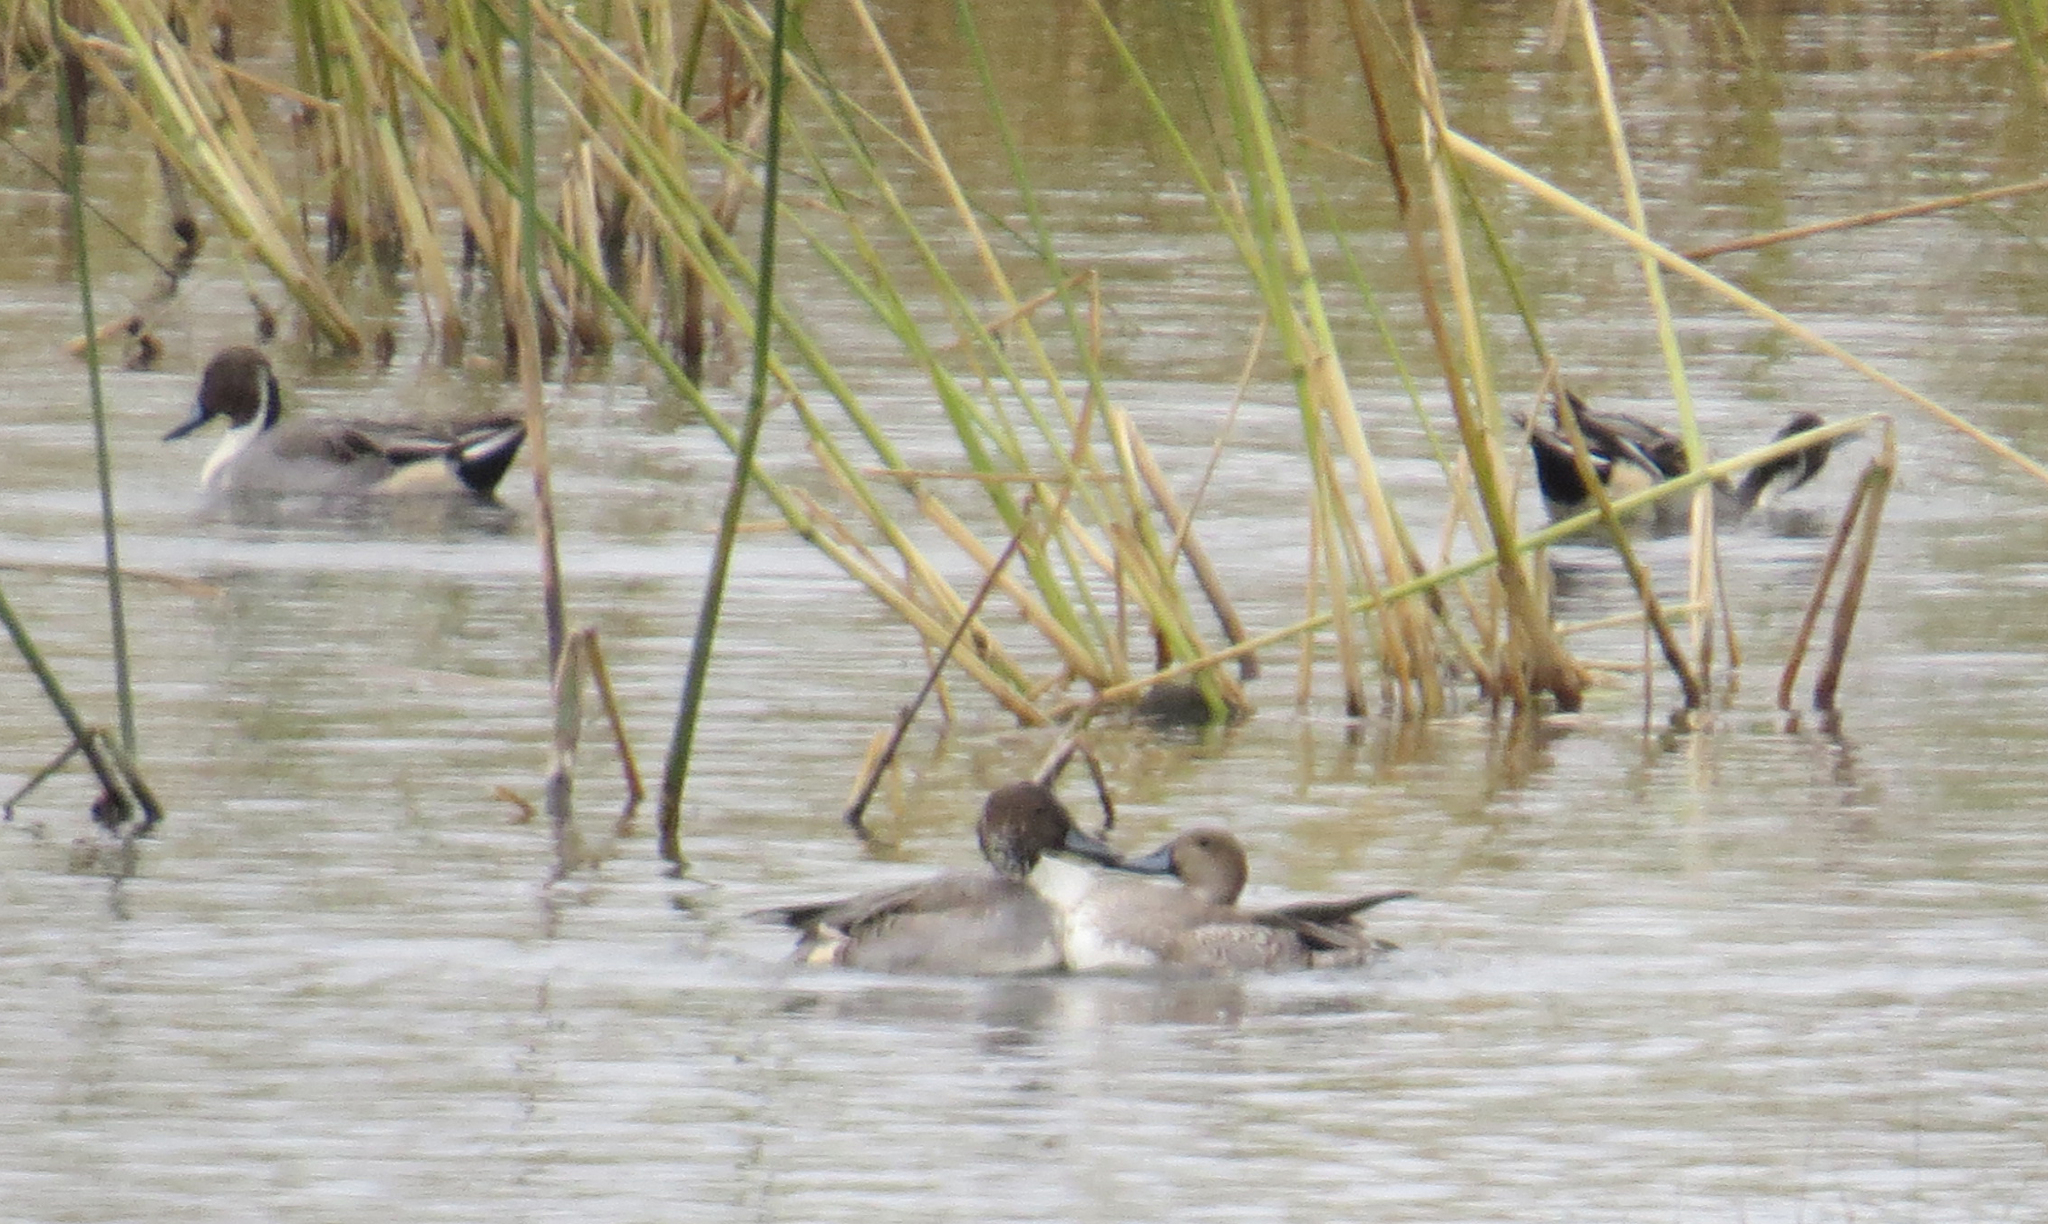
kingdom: Animalia
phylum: Chordata
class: Aves
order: Anseriformes
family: Anatidae
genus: Anas
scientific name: Anas acuta
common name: Northern pintail
